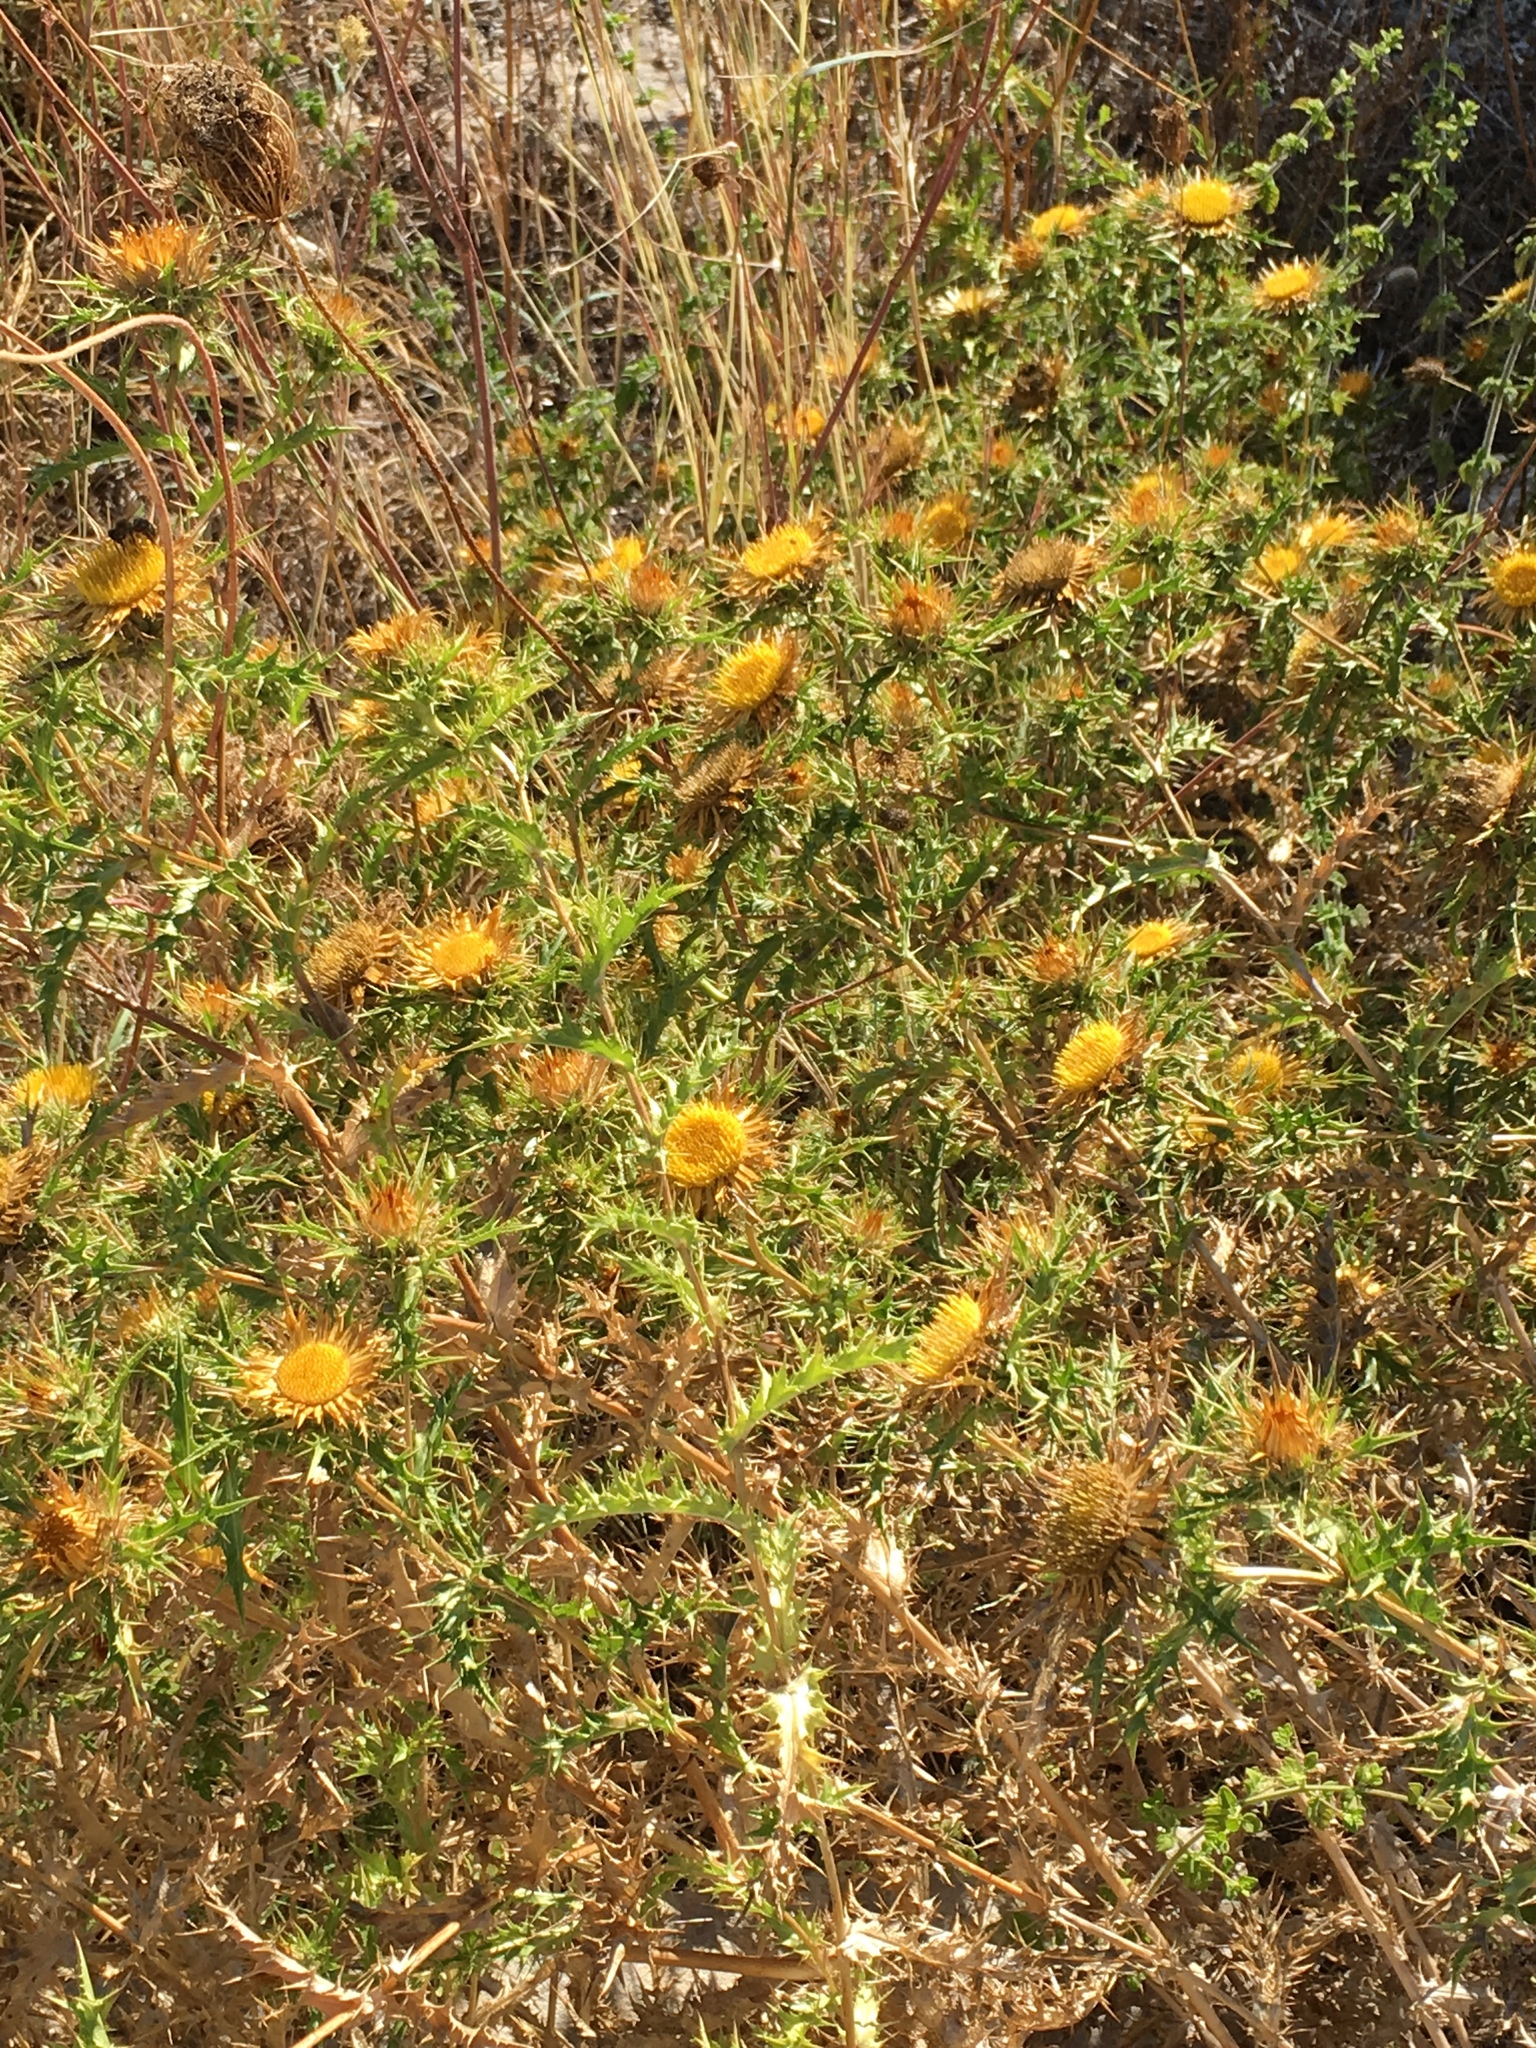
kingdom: Plantae
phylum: Tracheophyta
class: Magnoliopsida
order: Asterales
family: Asteraceae
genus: Carlina
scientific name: Carlina corymbosa
